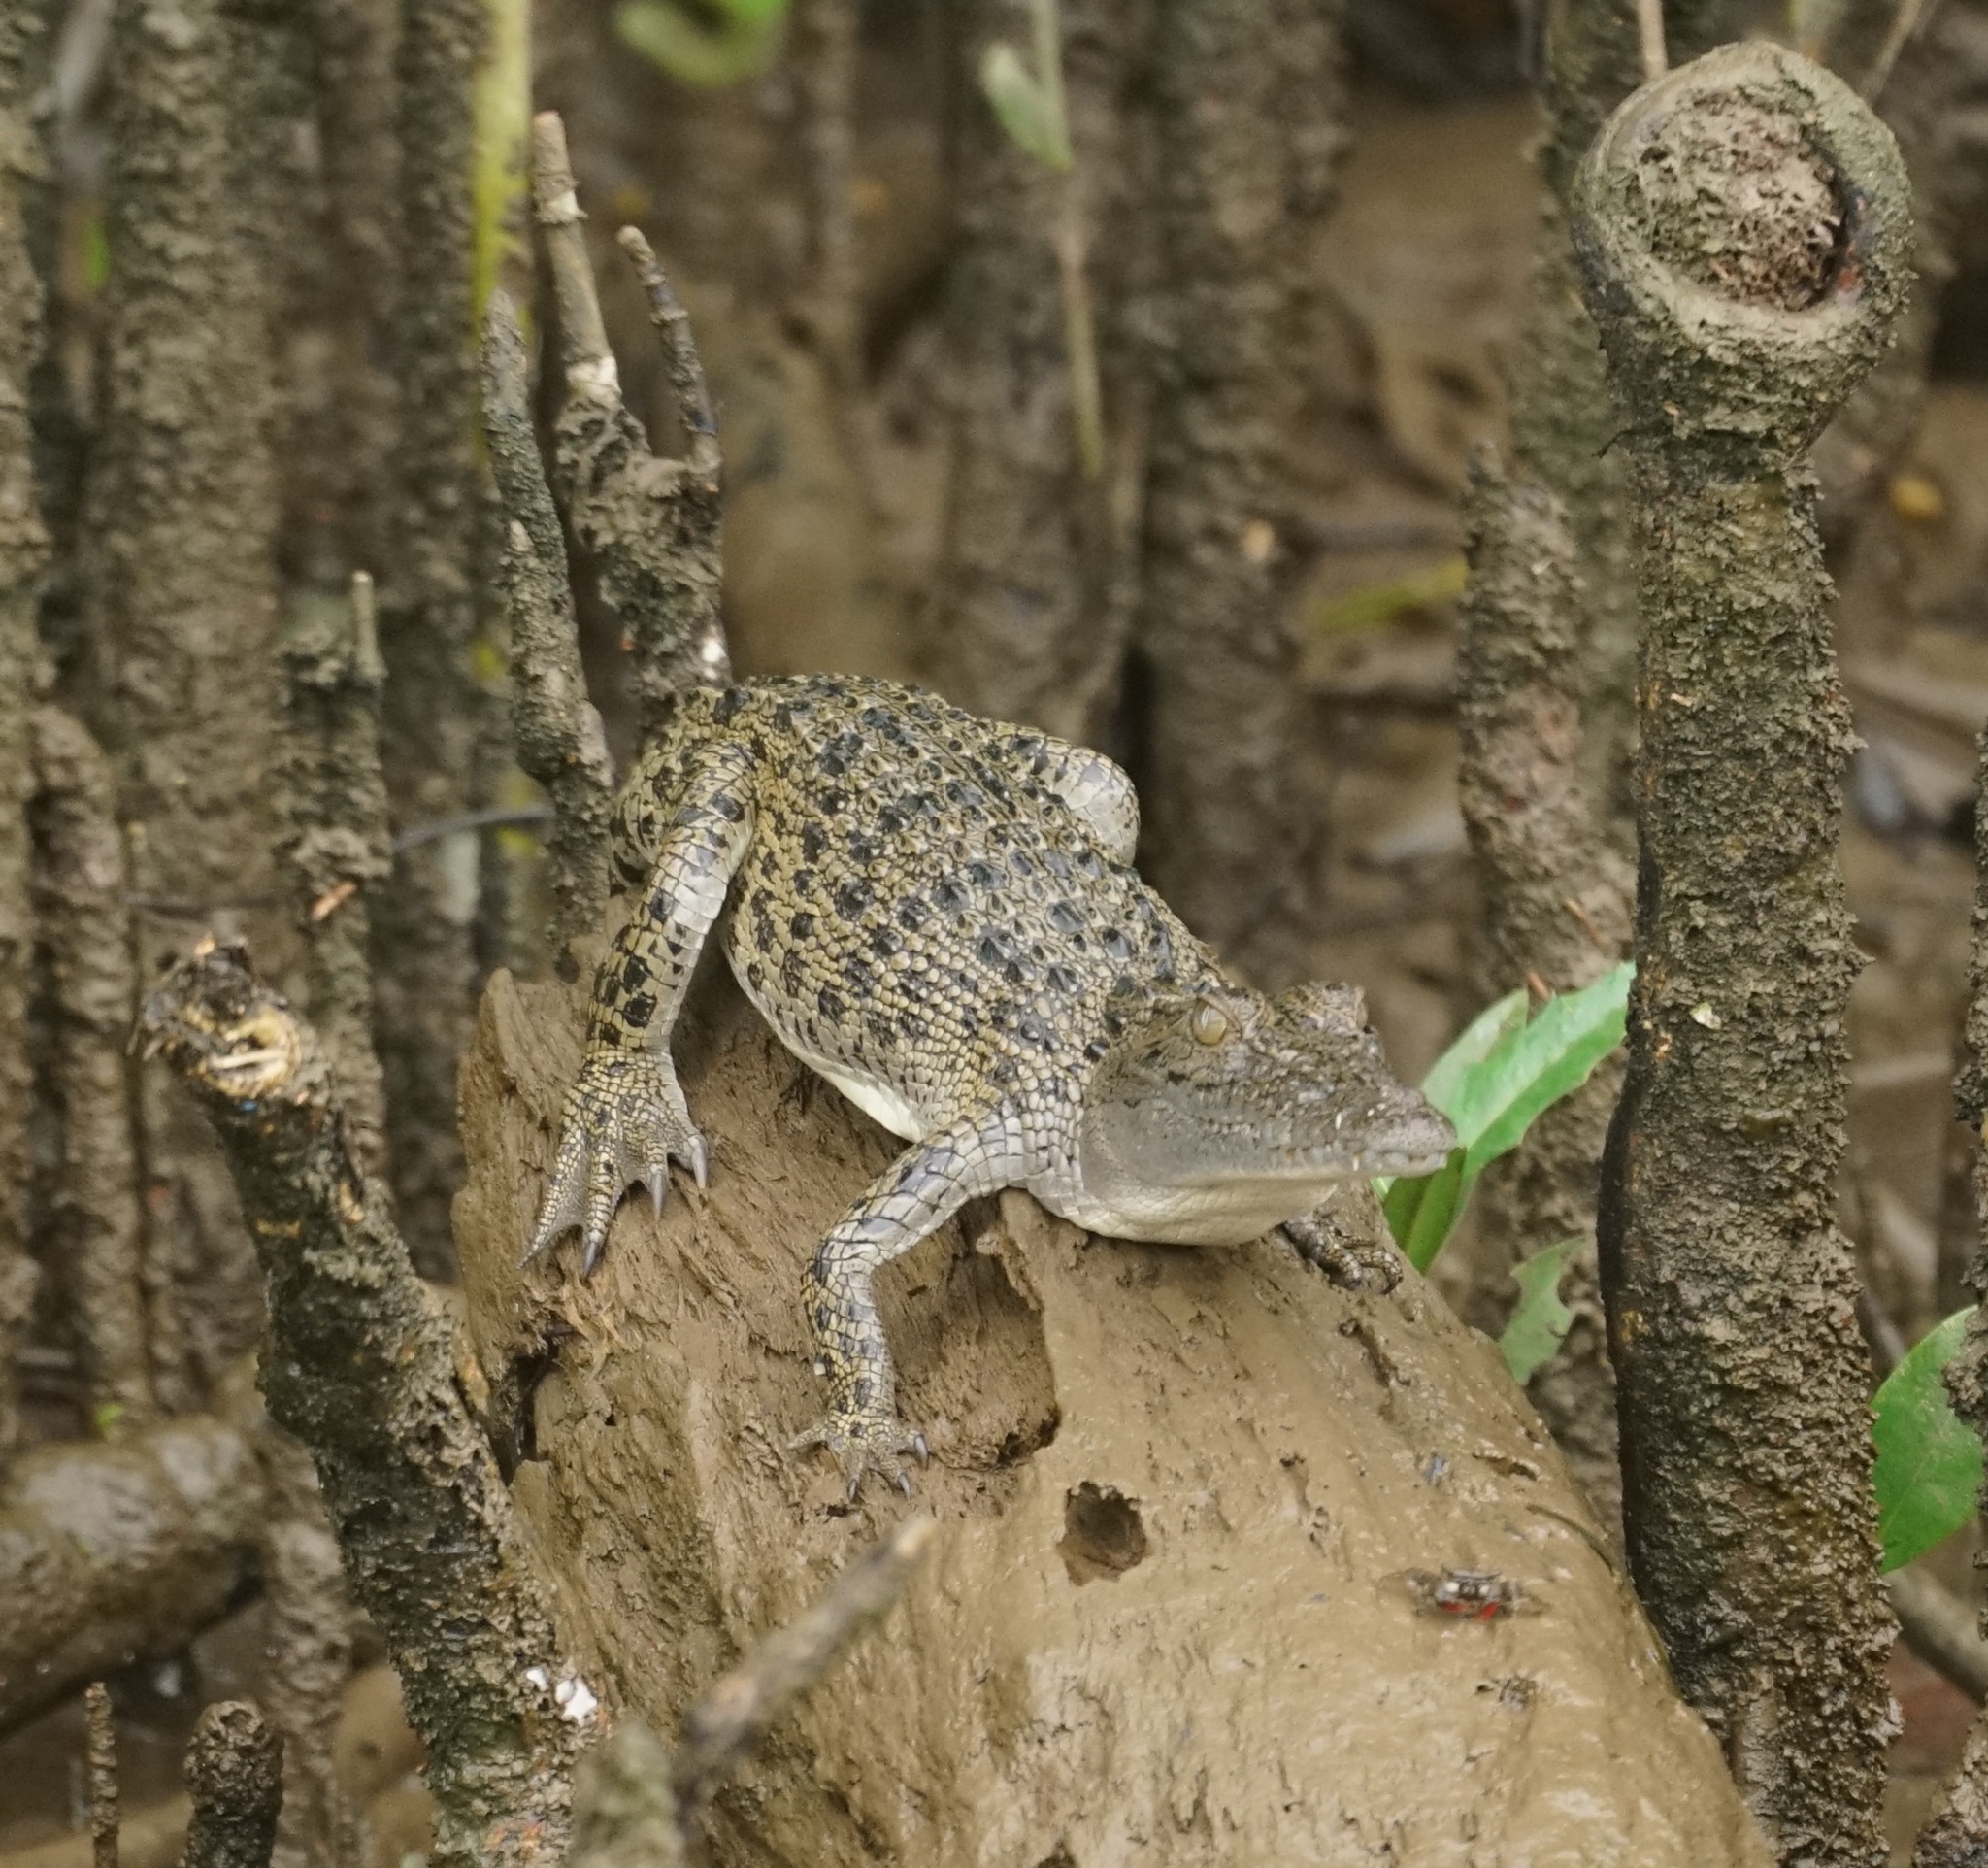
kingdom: Animalia
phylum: Chordata
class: Crocodylia
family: Crocodylidae
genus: Crocodylus
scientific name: Crocodylus porosus
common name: Saltwater crocodile
